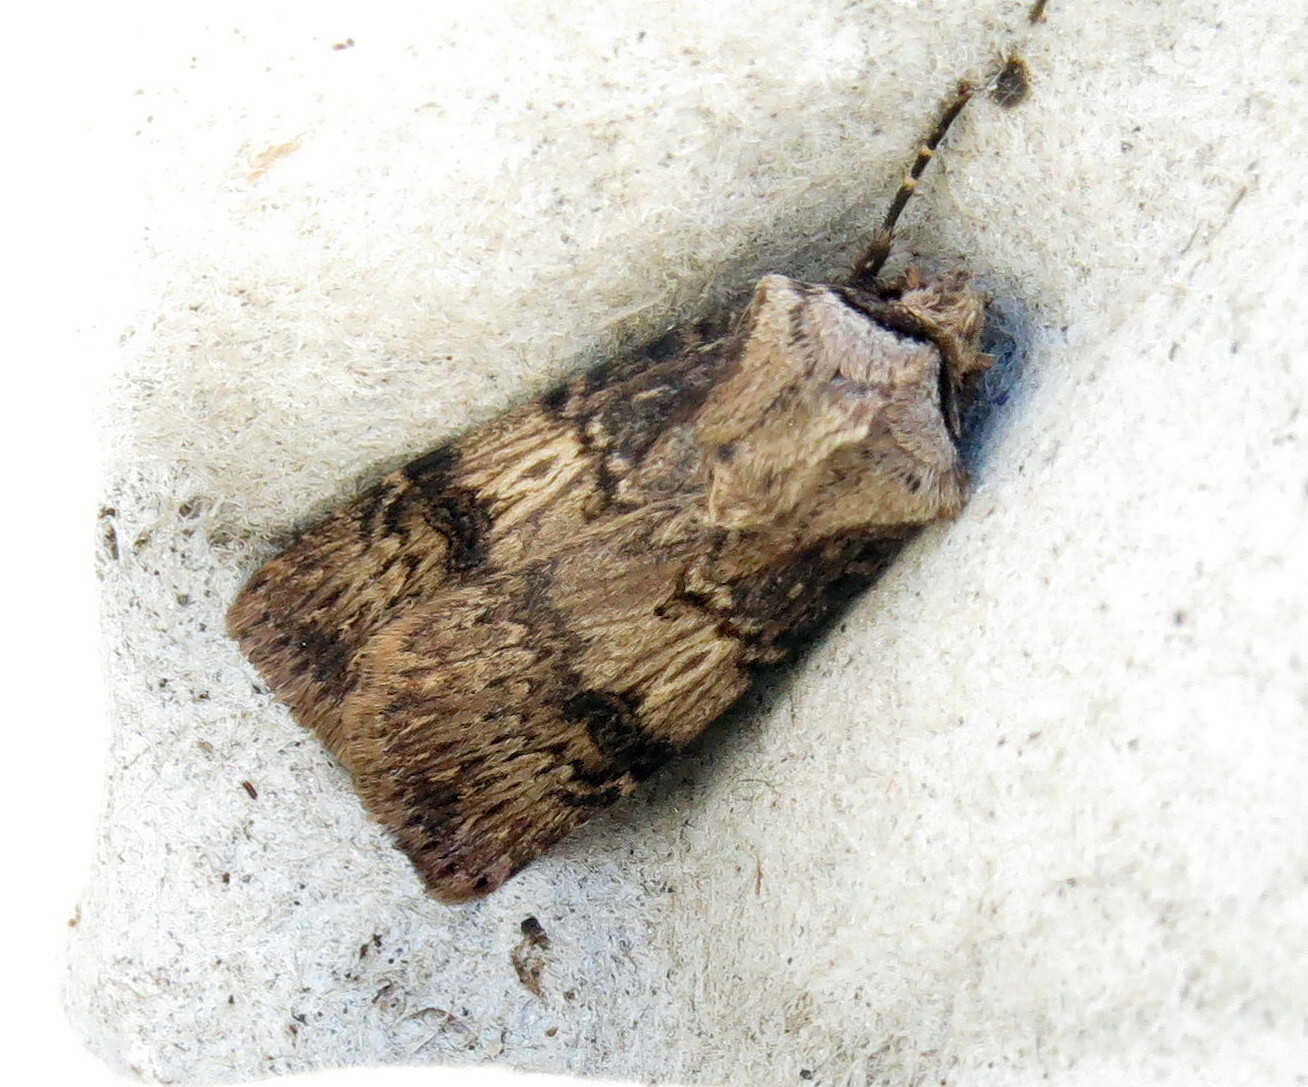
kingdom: Animalia
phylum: Arthropoda
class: Insecta
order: Lepidoptera
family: Noctuidae
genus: Agrotis
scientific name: Agrotis puta
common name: Shuttle-shaped dart
